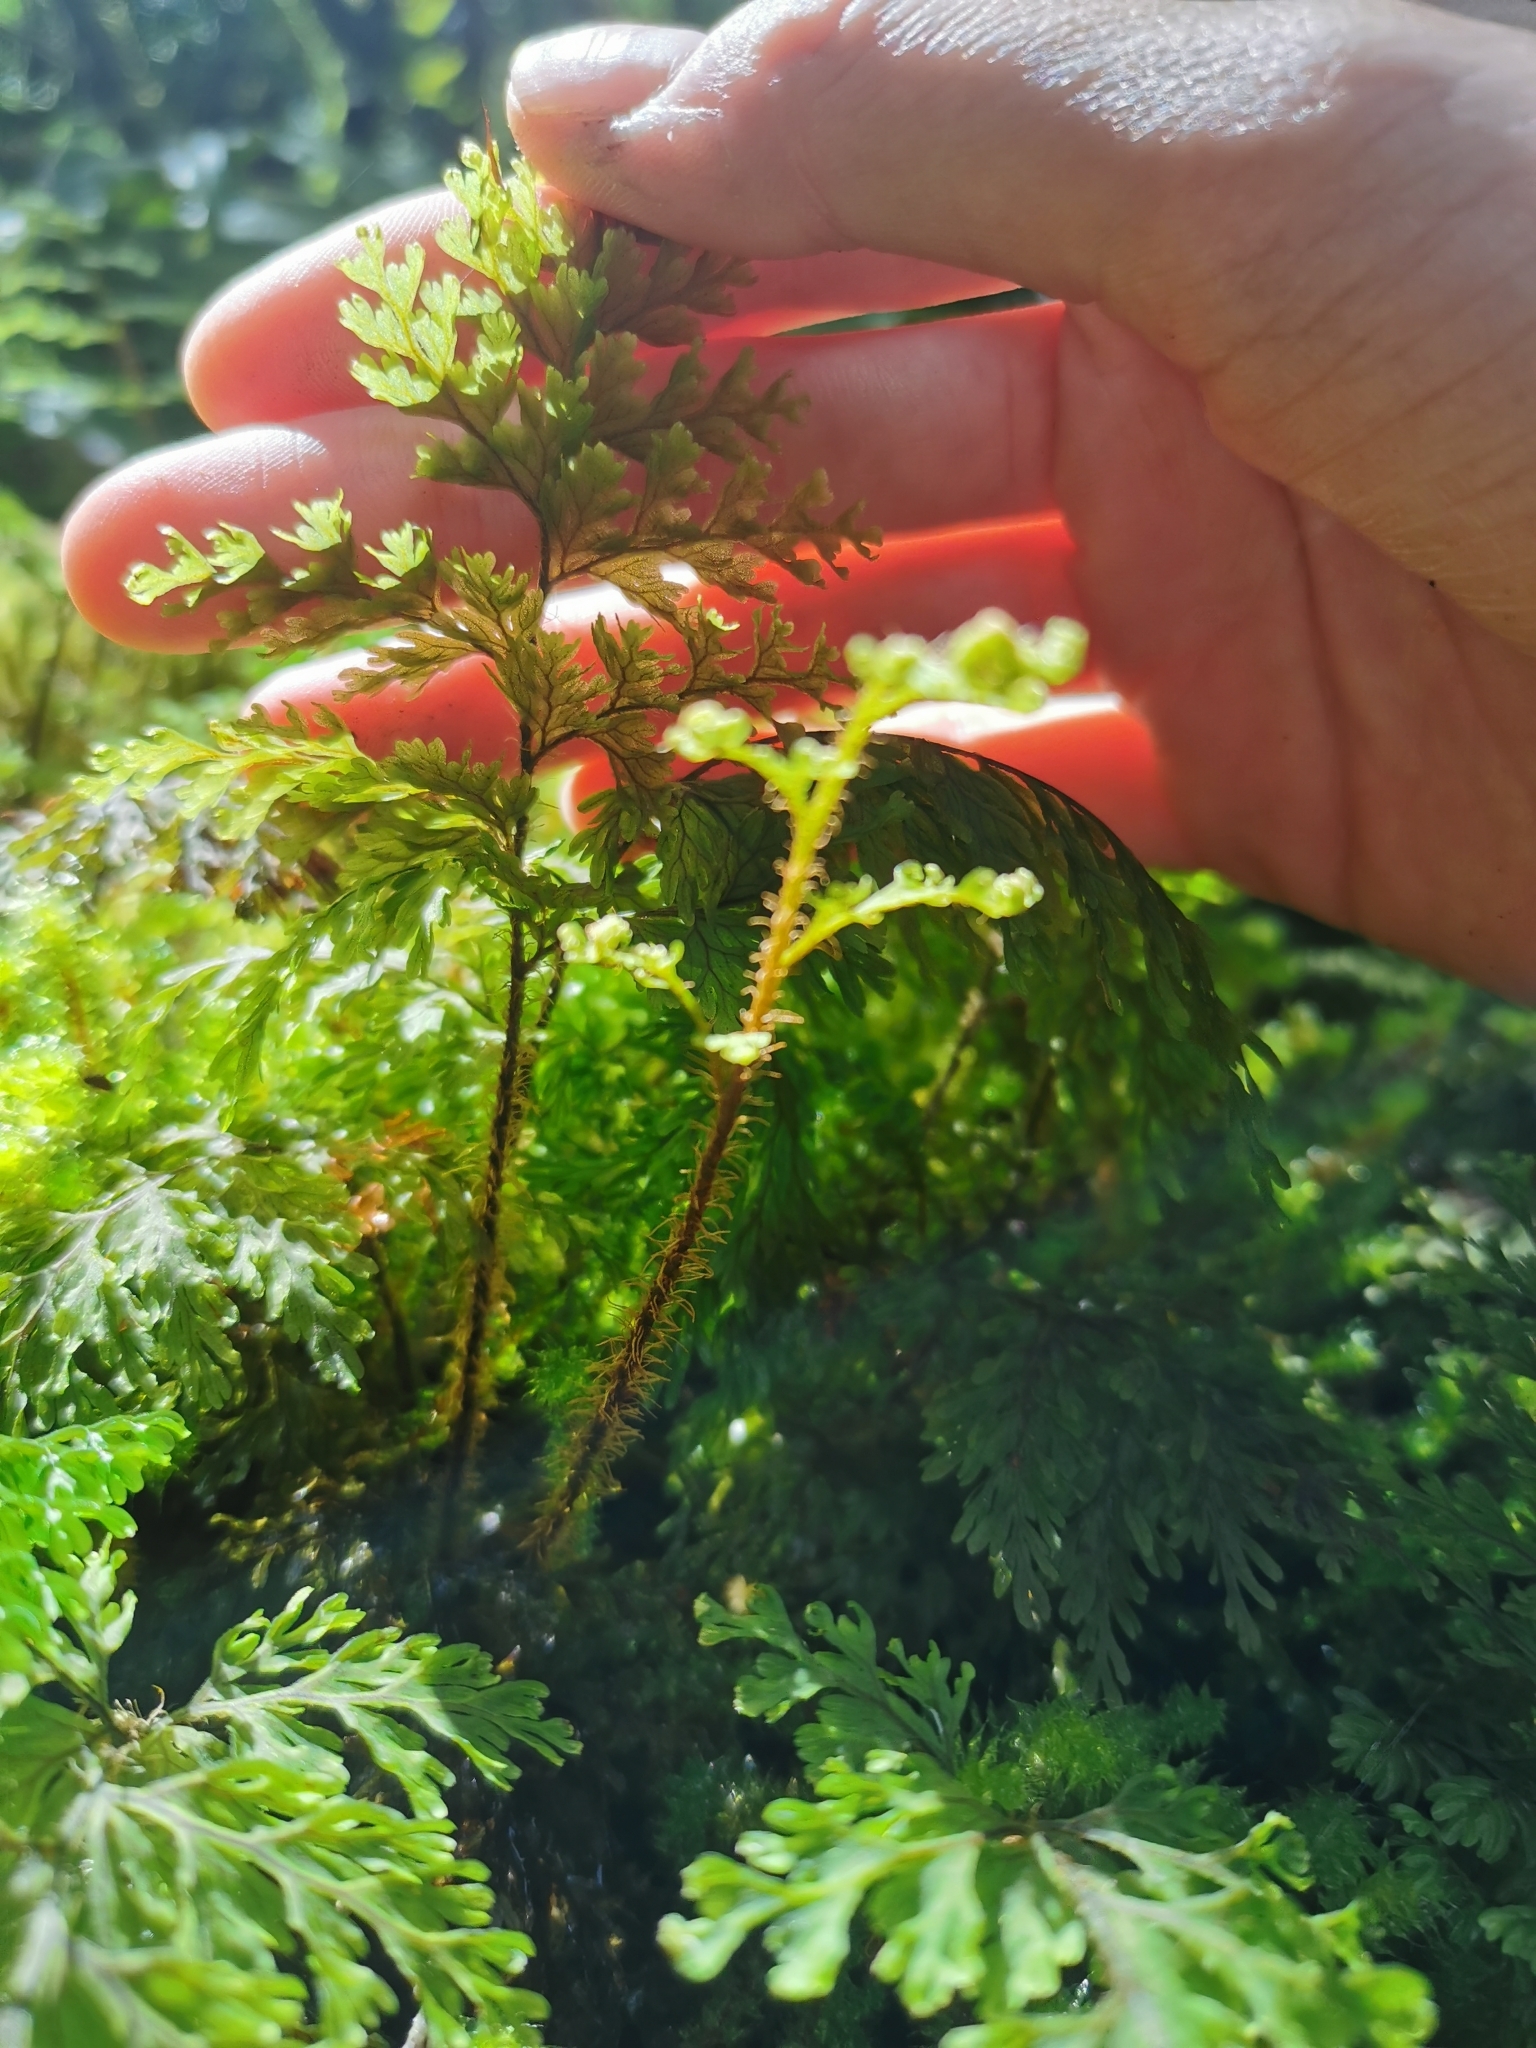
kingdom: Plantae
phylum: Tracheophyta
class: Polypodiopsida
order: Hymenophyllales
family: Hymenophyllaceae
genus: Hymenophyllum
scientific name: Hymenophyllum scabrum
